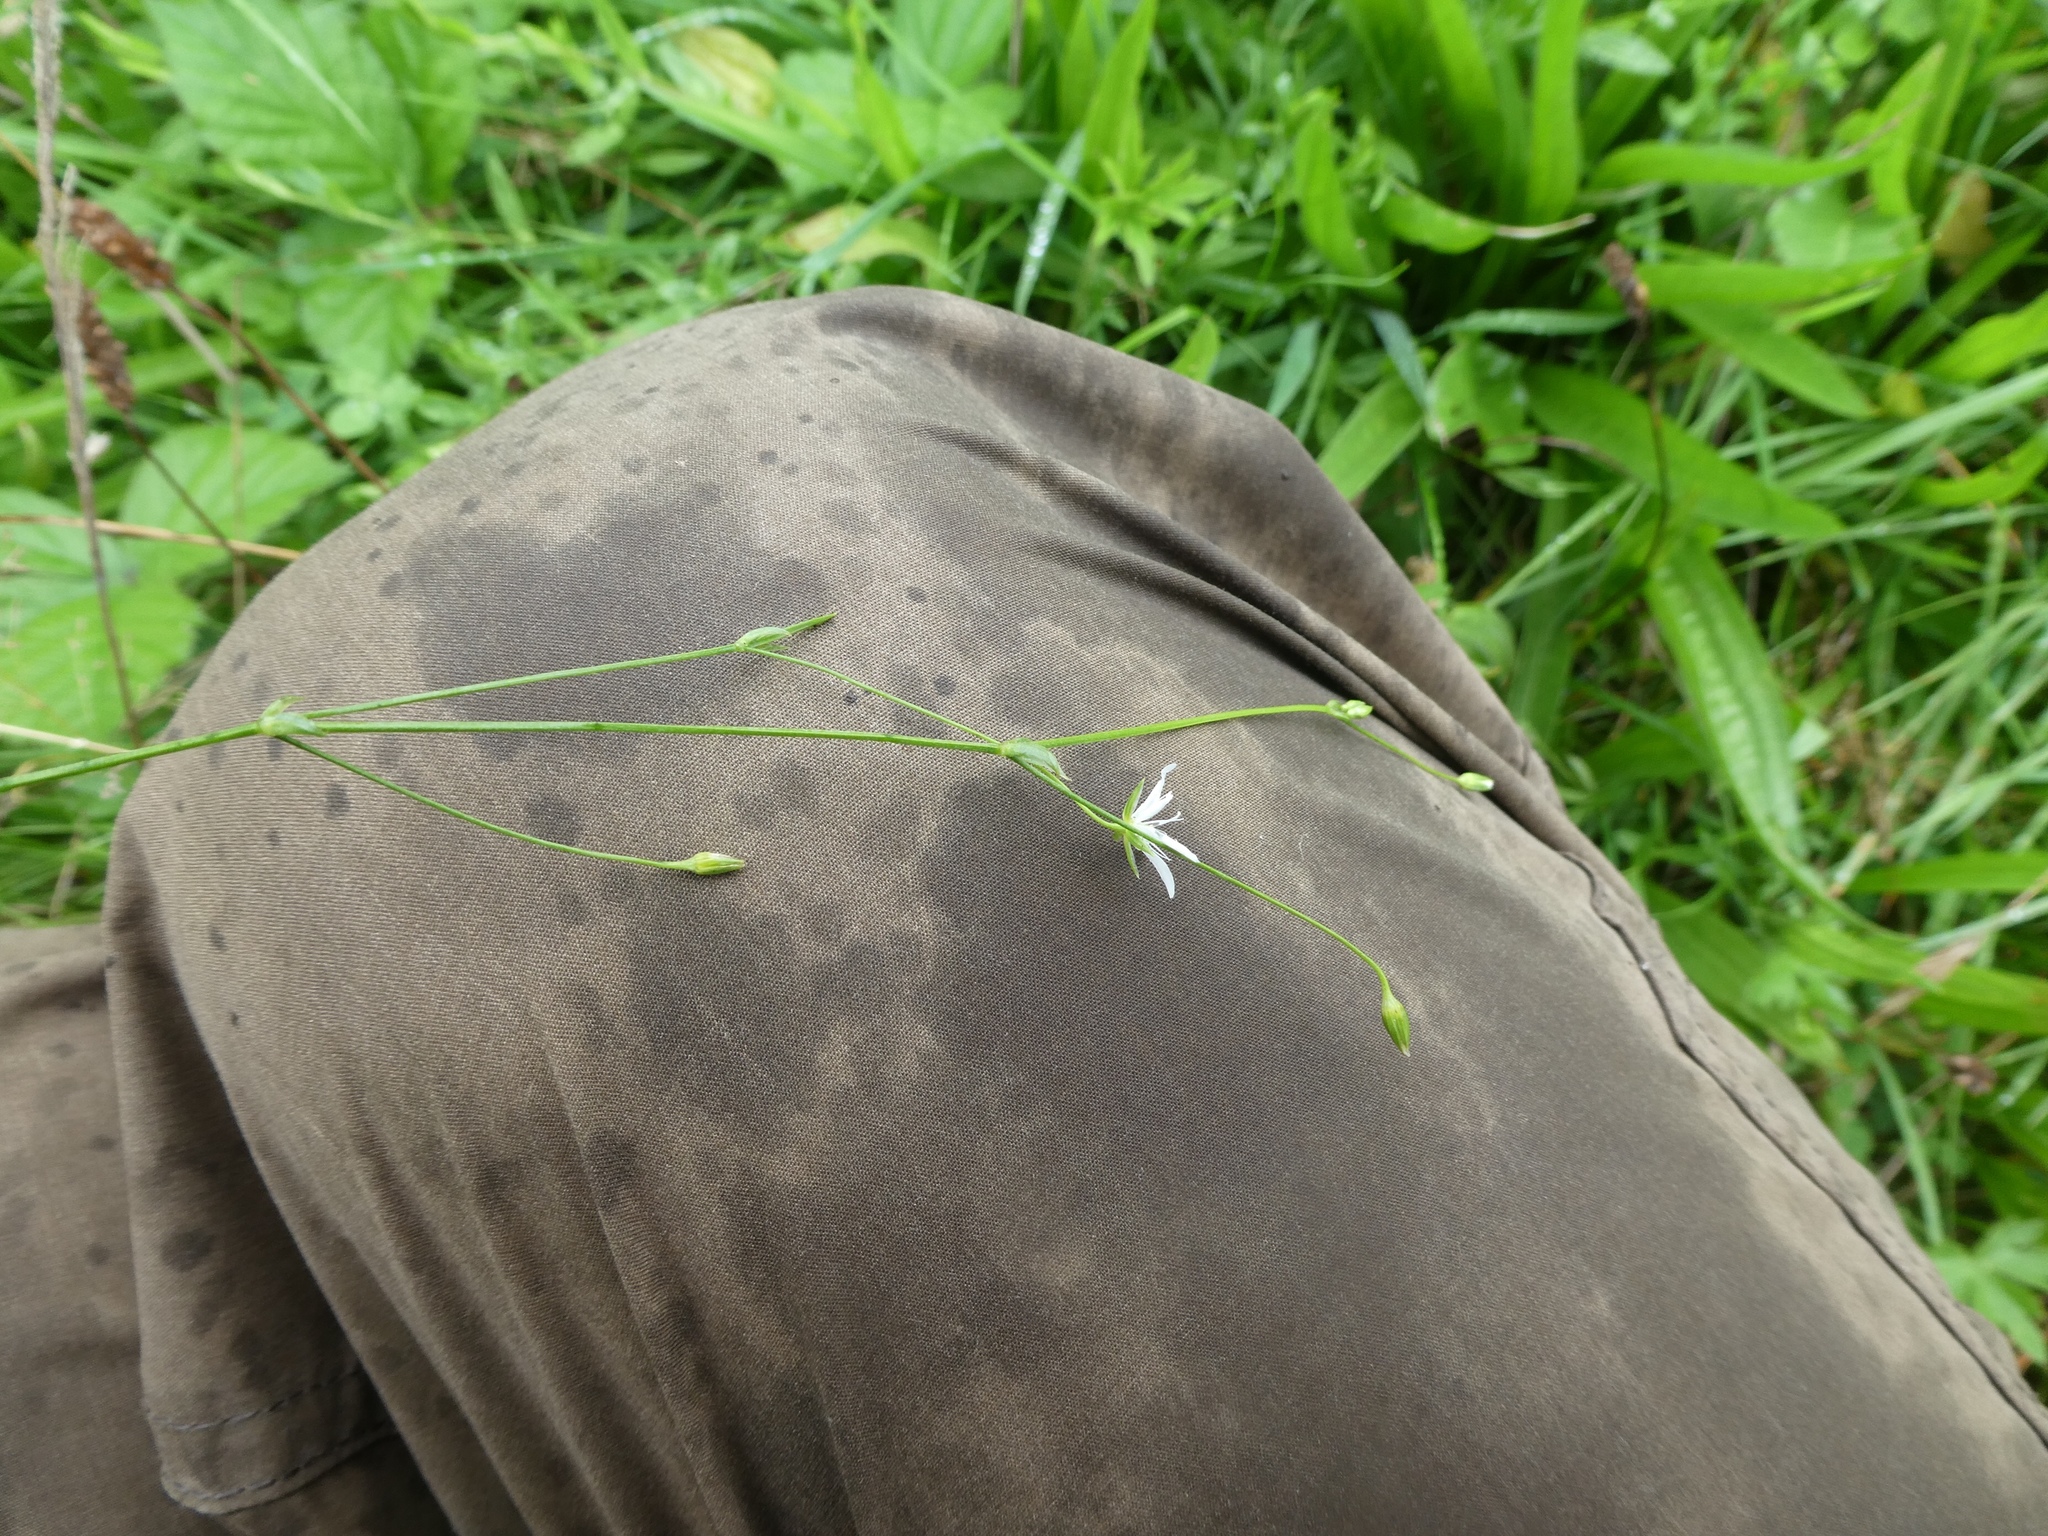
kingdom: Plantae
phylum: Tracheophyta
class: Magnoliopsida
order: Caryophyllales
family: Caryophyllaceae
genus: Stellaria
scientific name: Stellaria graminea
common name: Grass-like starwort
